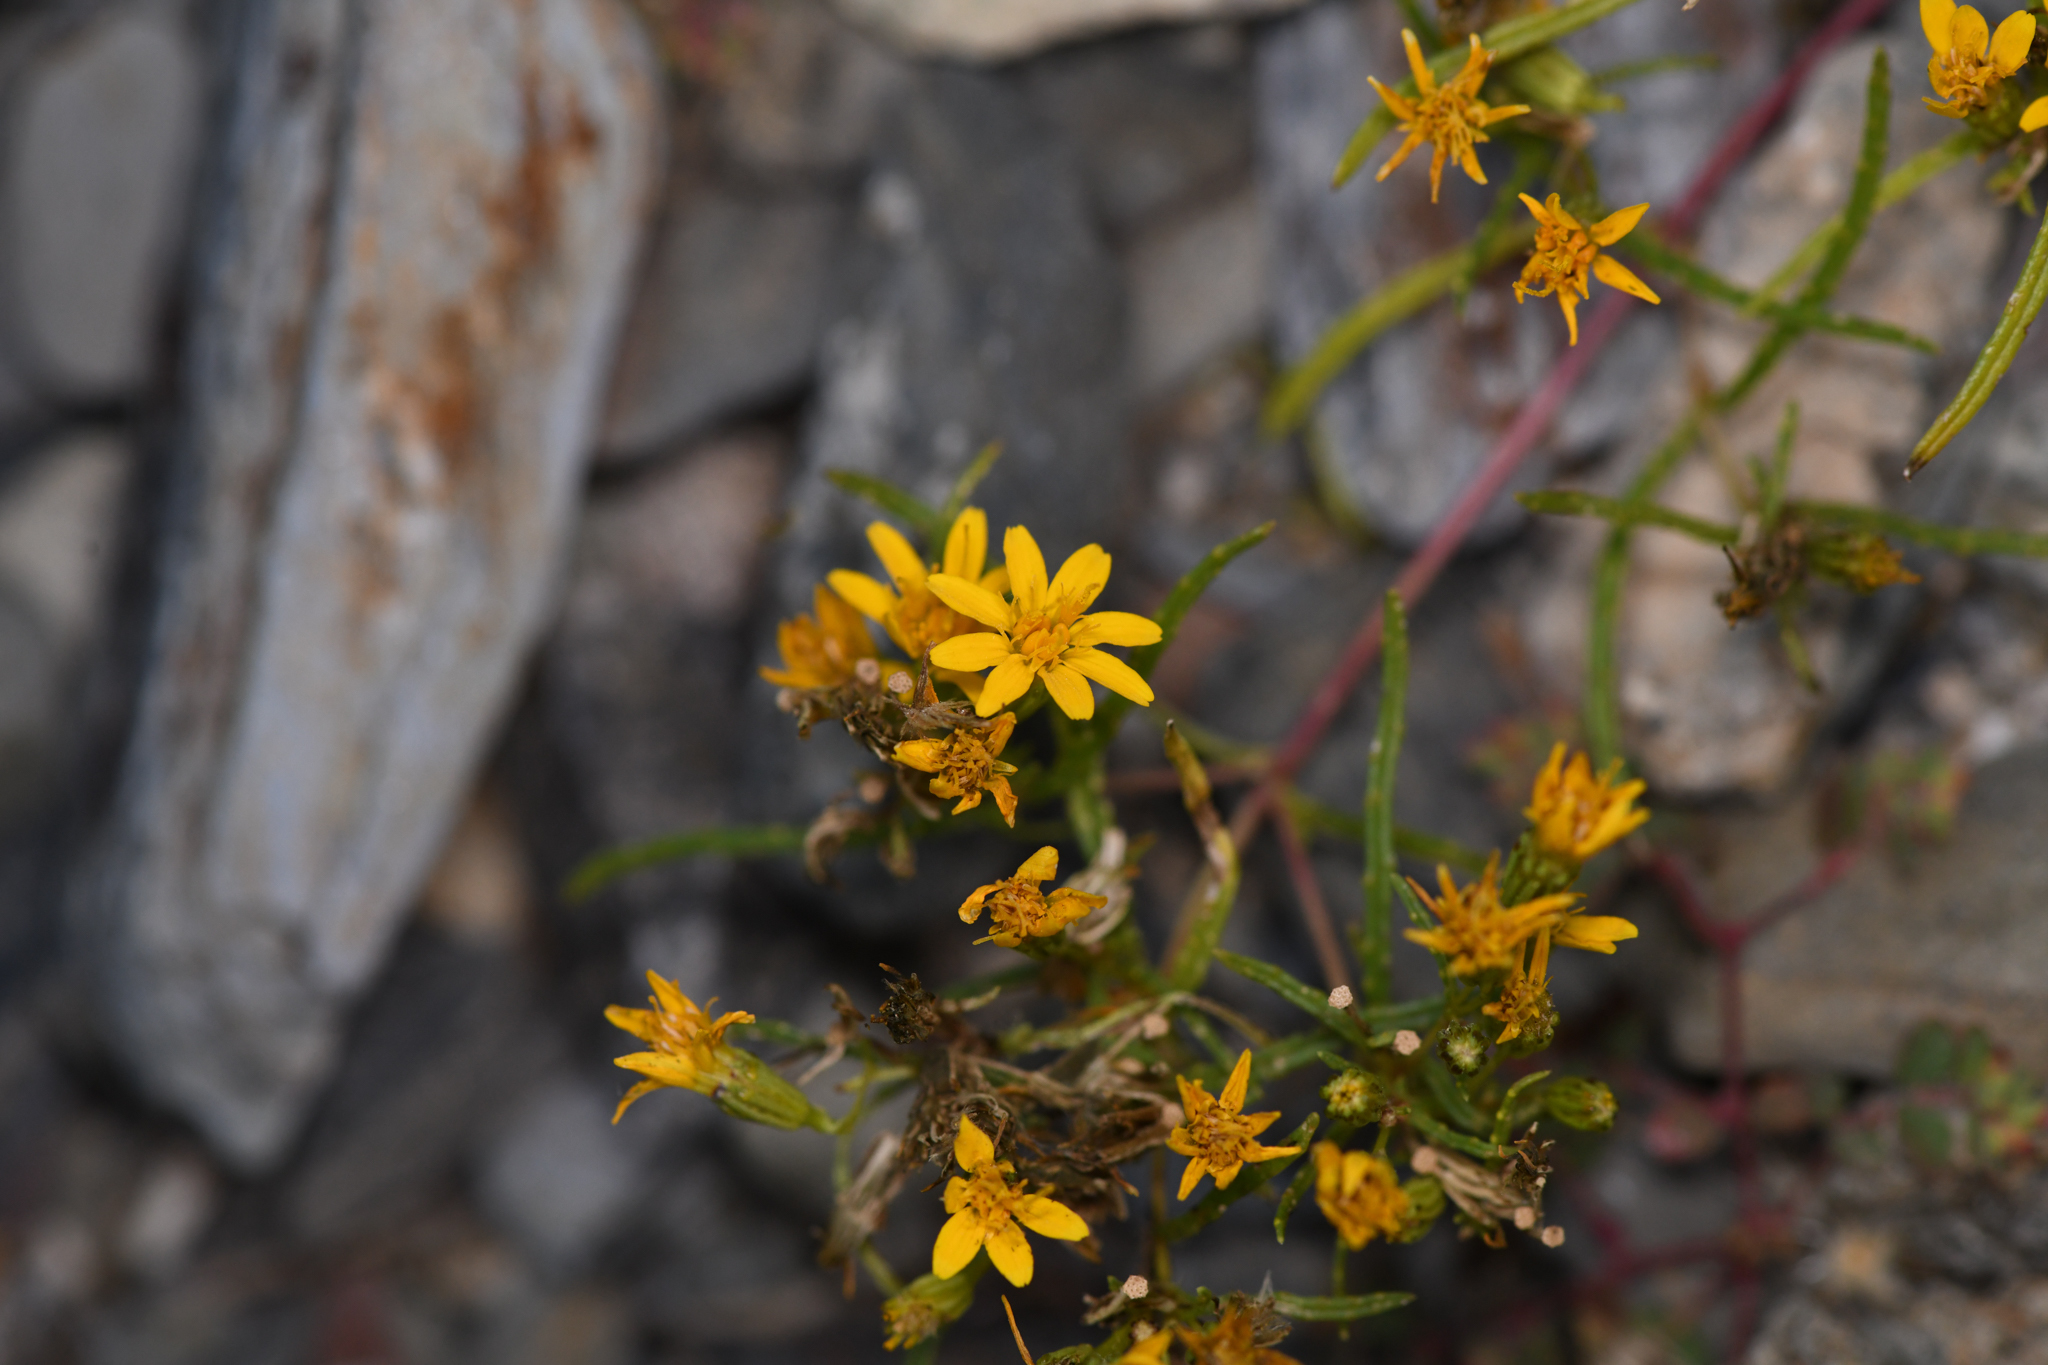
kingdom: Plantae
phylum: Tracheophyta
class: Magnoliopsida
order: Asterales
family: Asteraceae
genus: Pectis
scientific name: Pectis papposa
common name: Many-bristle chinchweed
